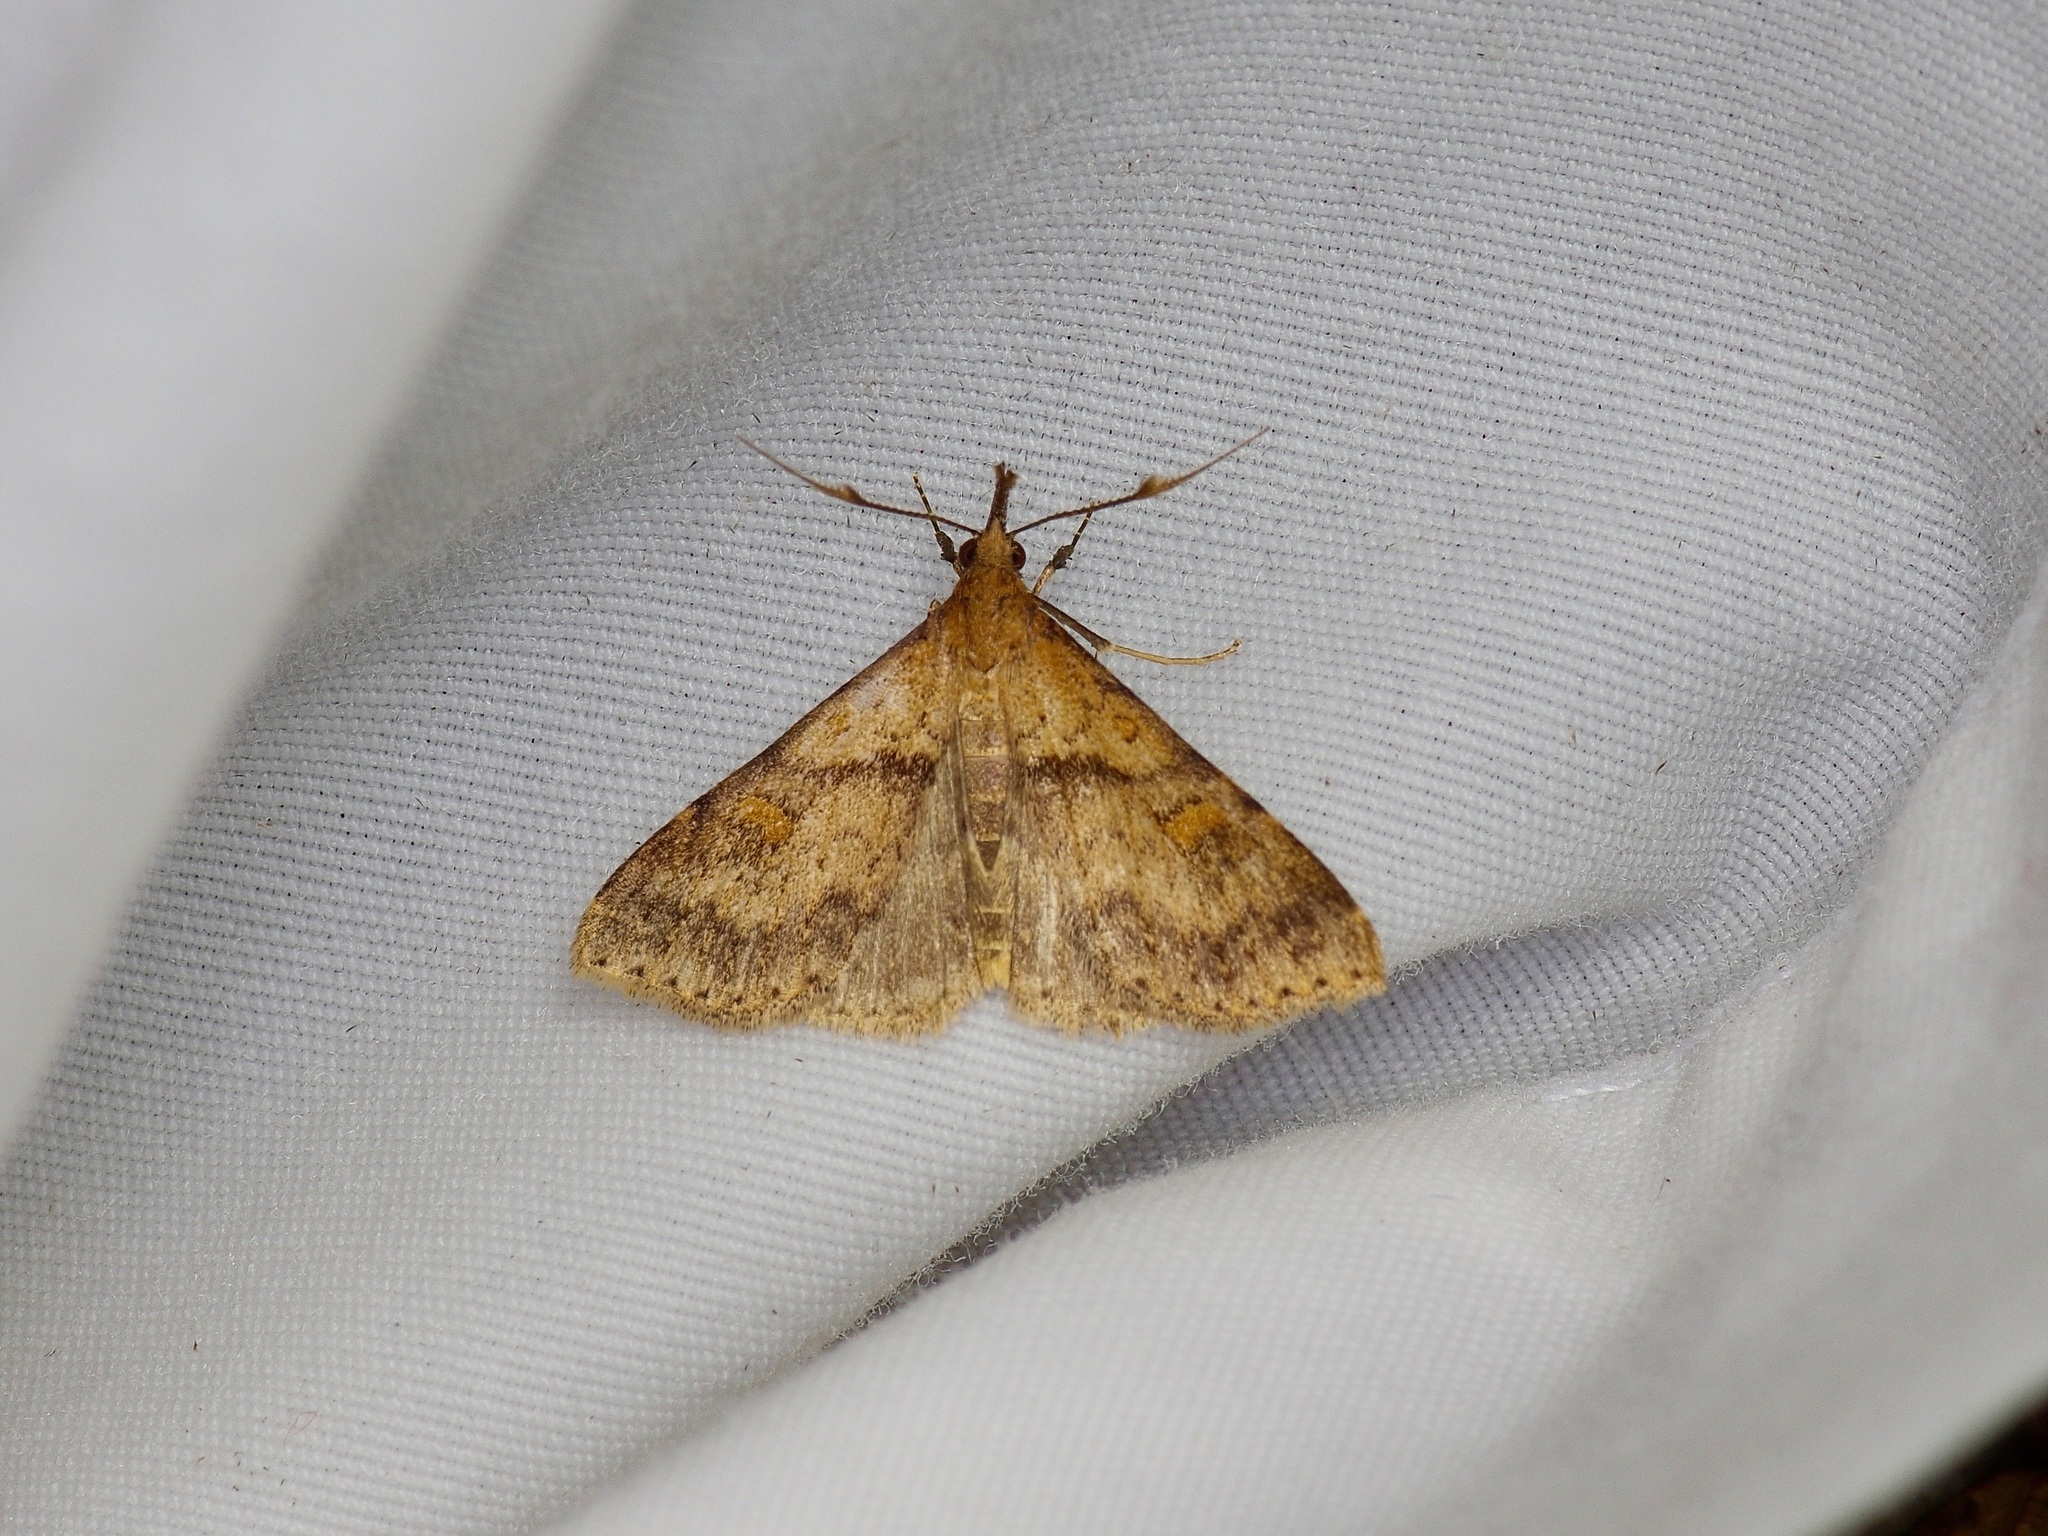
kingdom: Animalia
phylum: Arthropoda
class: Insecta
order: Lepidoptera
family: Erebidae
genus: Renia
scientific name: Renia rigida
